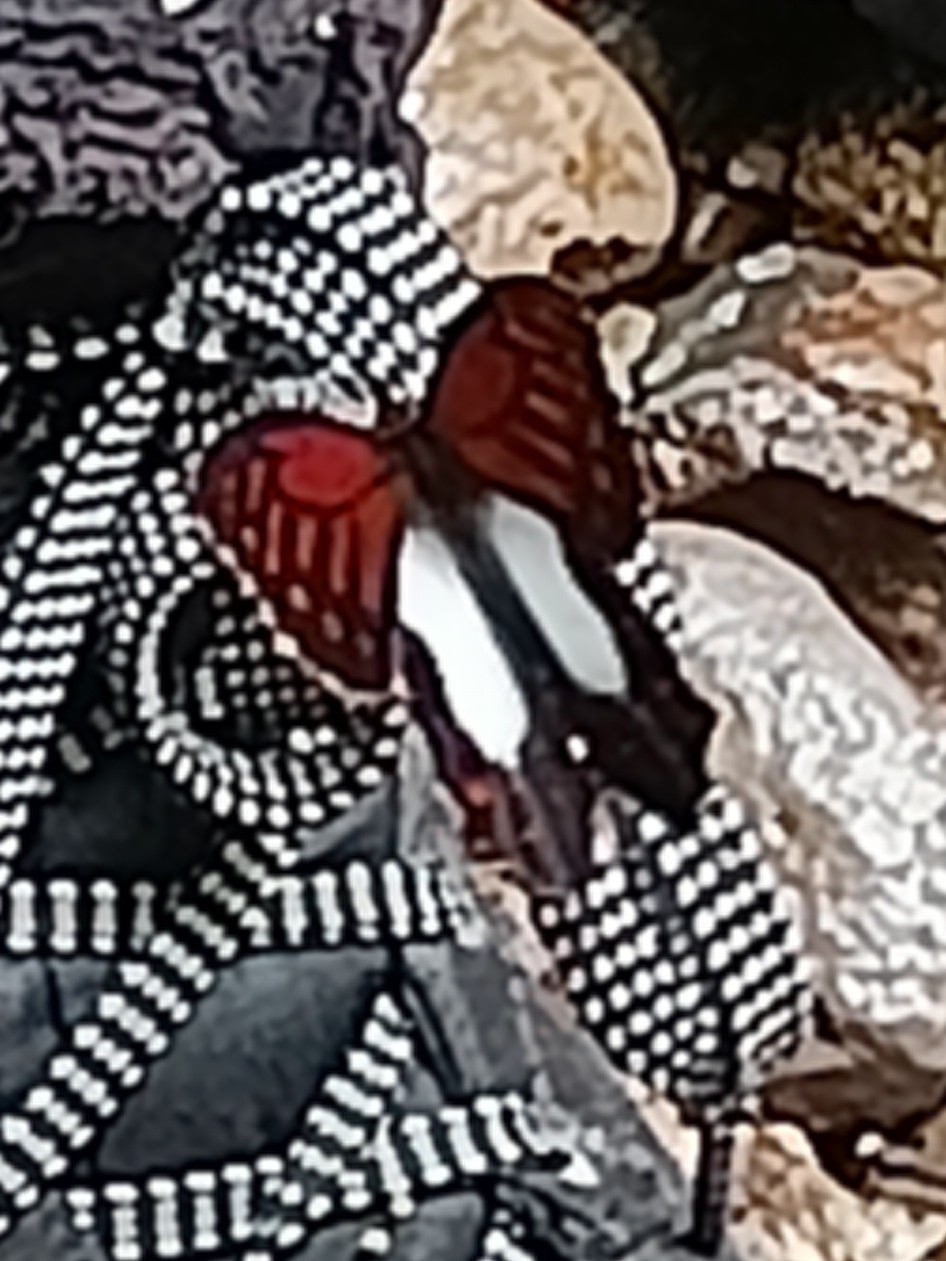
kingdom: Animalia
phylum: Arthropoda
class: Insecta
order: Lepidoptera
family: Nymphalidae
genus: Lasiophila
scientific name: Lasiophila cirta
